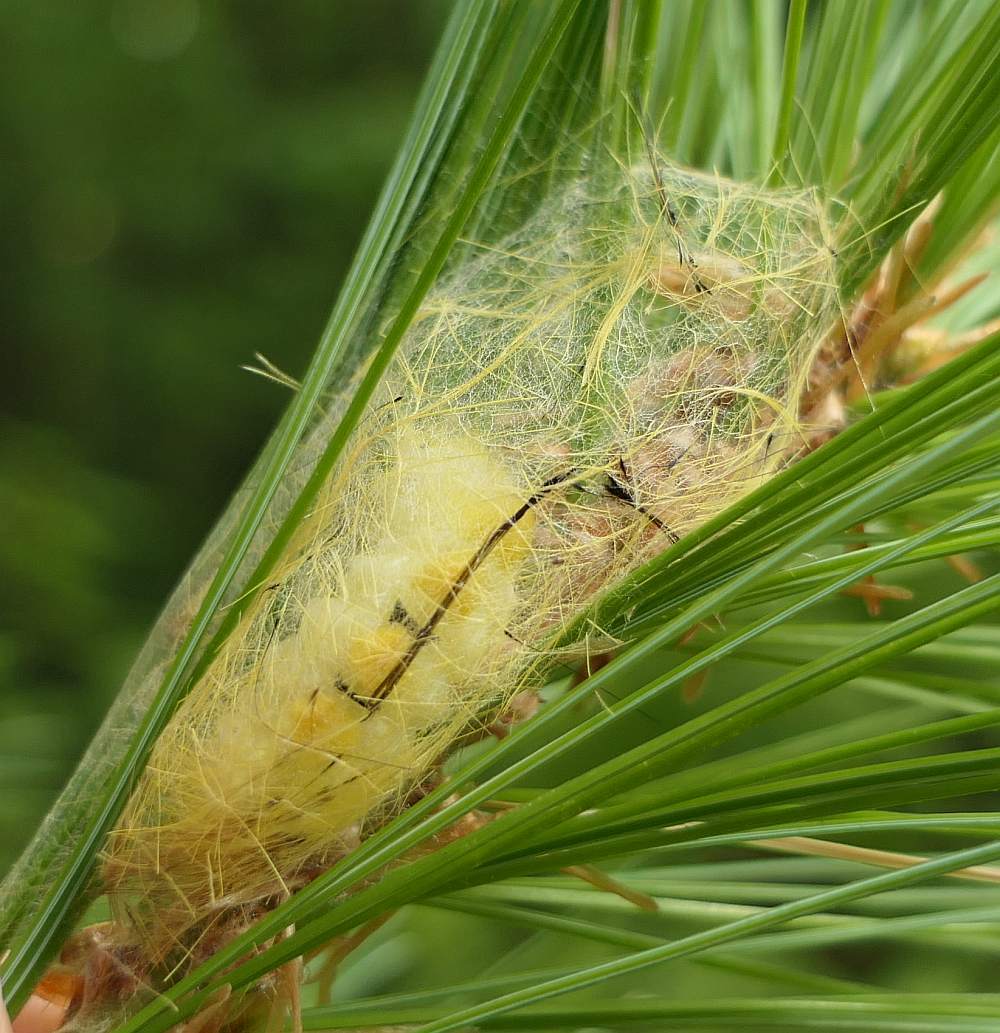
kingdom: Animalia
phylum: Arthropoda
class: Insecta
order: Lepidoptera
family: Erebidae
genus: Orgyia
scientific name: Orgyia definita
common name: Definite tussock moth
